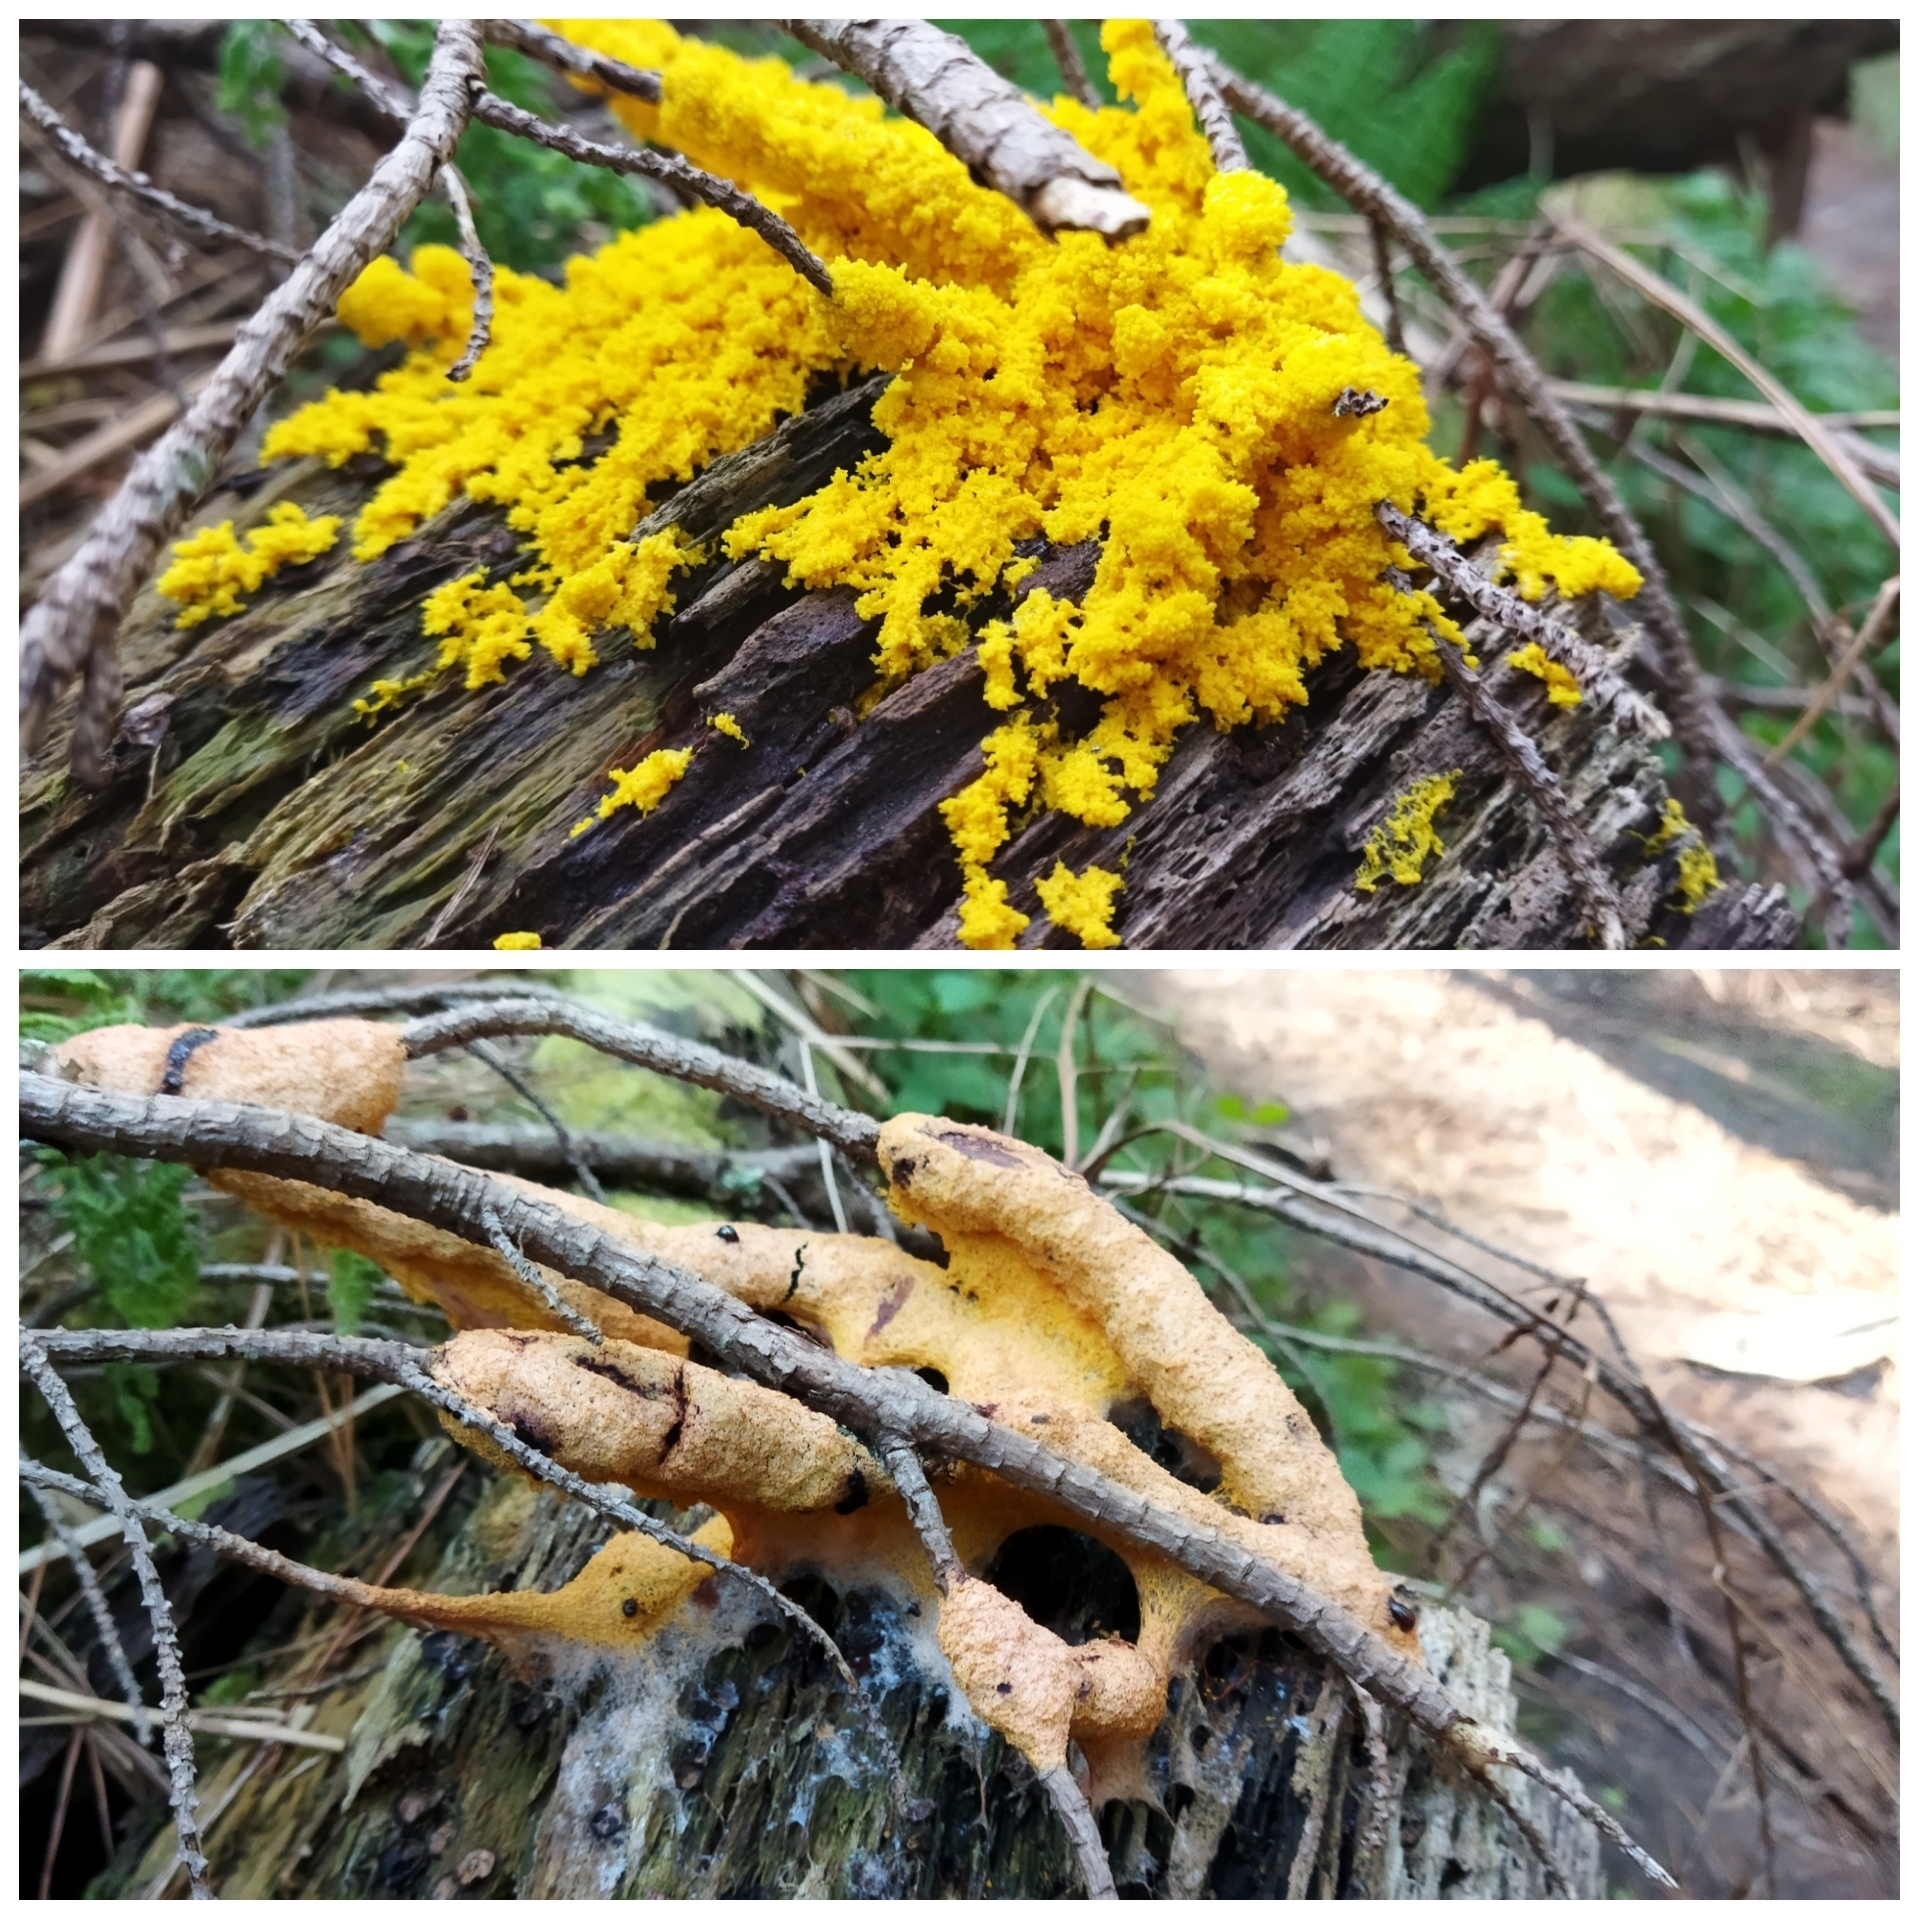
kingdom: Protozoa
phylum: Mycetozoa
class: Myxomycetes
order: Physarales
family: Physaraceae
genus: Fuligo
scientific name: Fuligo septica
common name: Dog vomit slime mold
